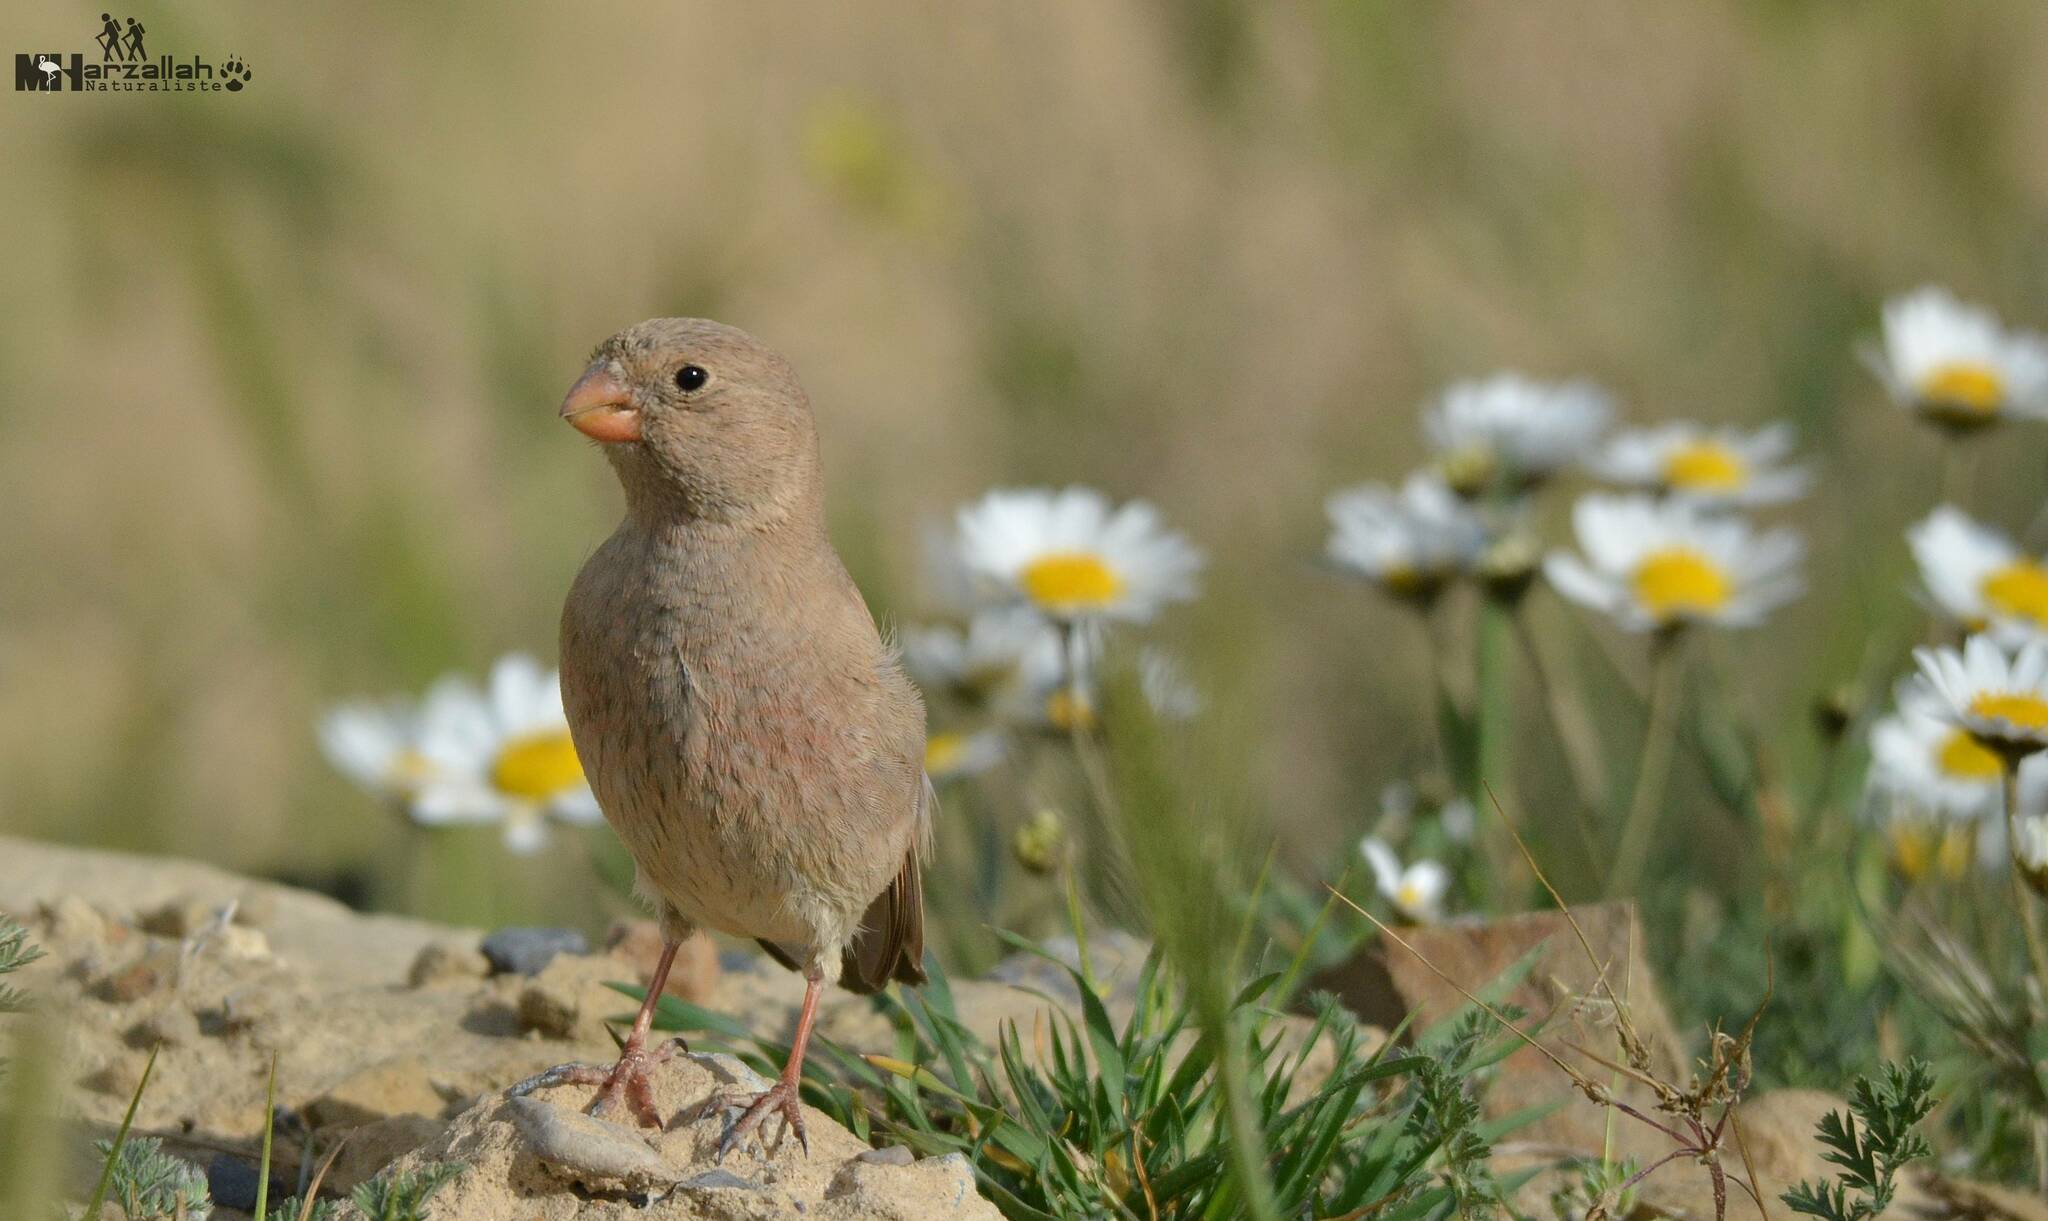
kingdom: Animalia
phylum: Chordata
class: Aves
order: Passeriformes
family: Fringillidae
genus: Bucanetes
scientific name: Bucanetes githagineus
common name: Trumpeter finch
